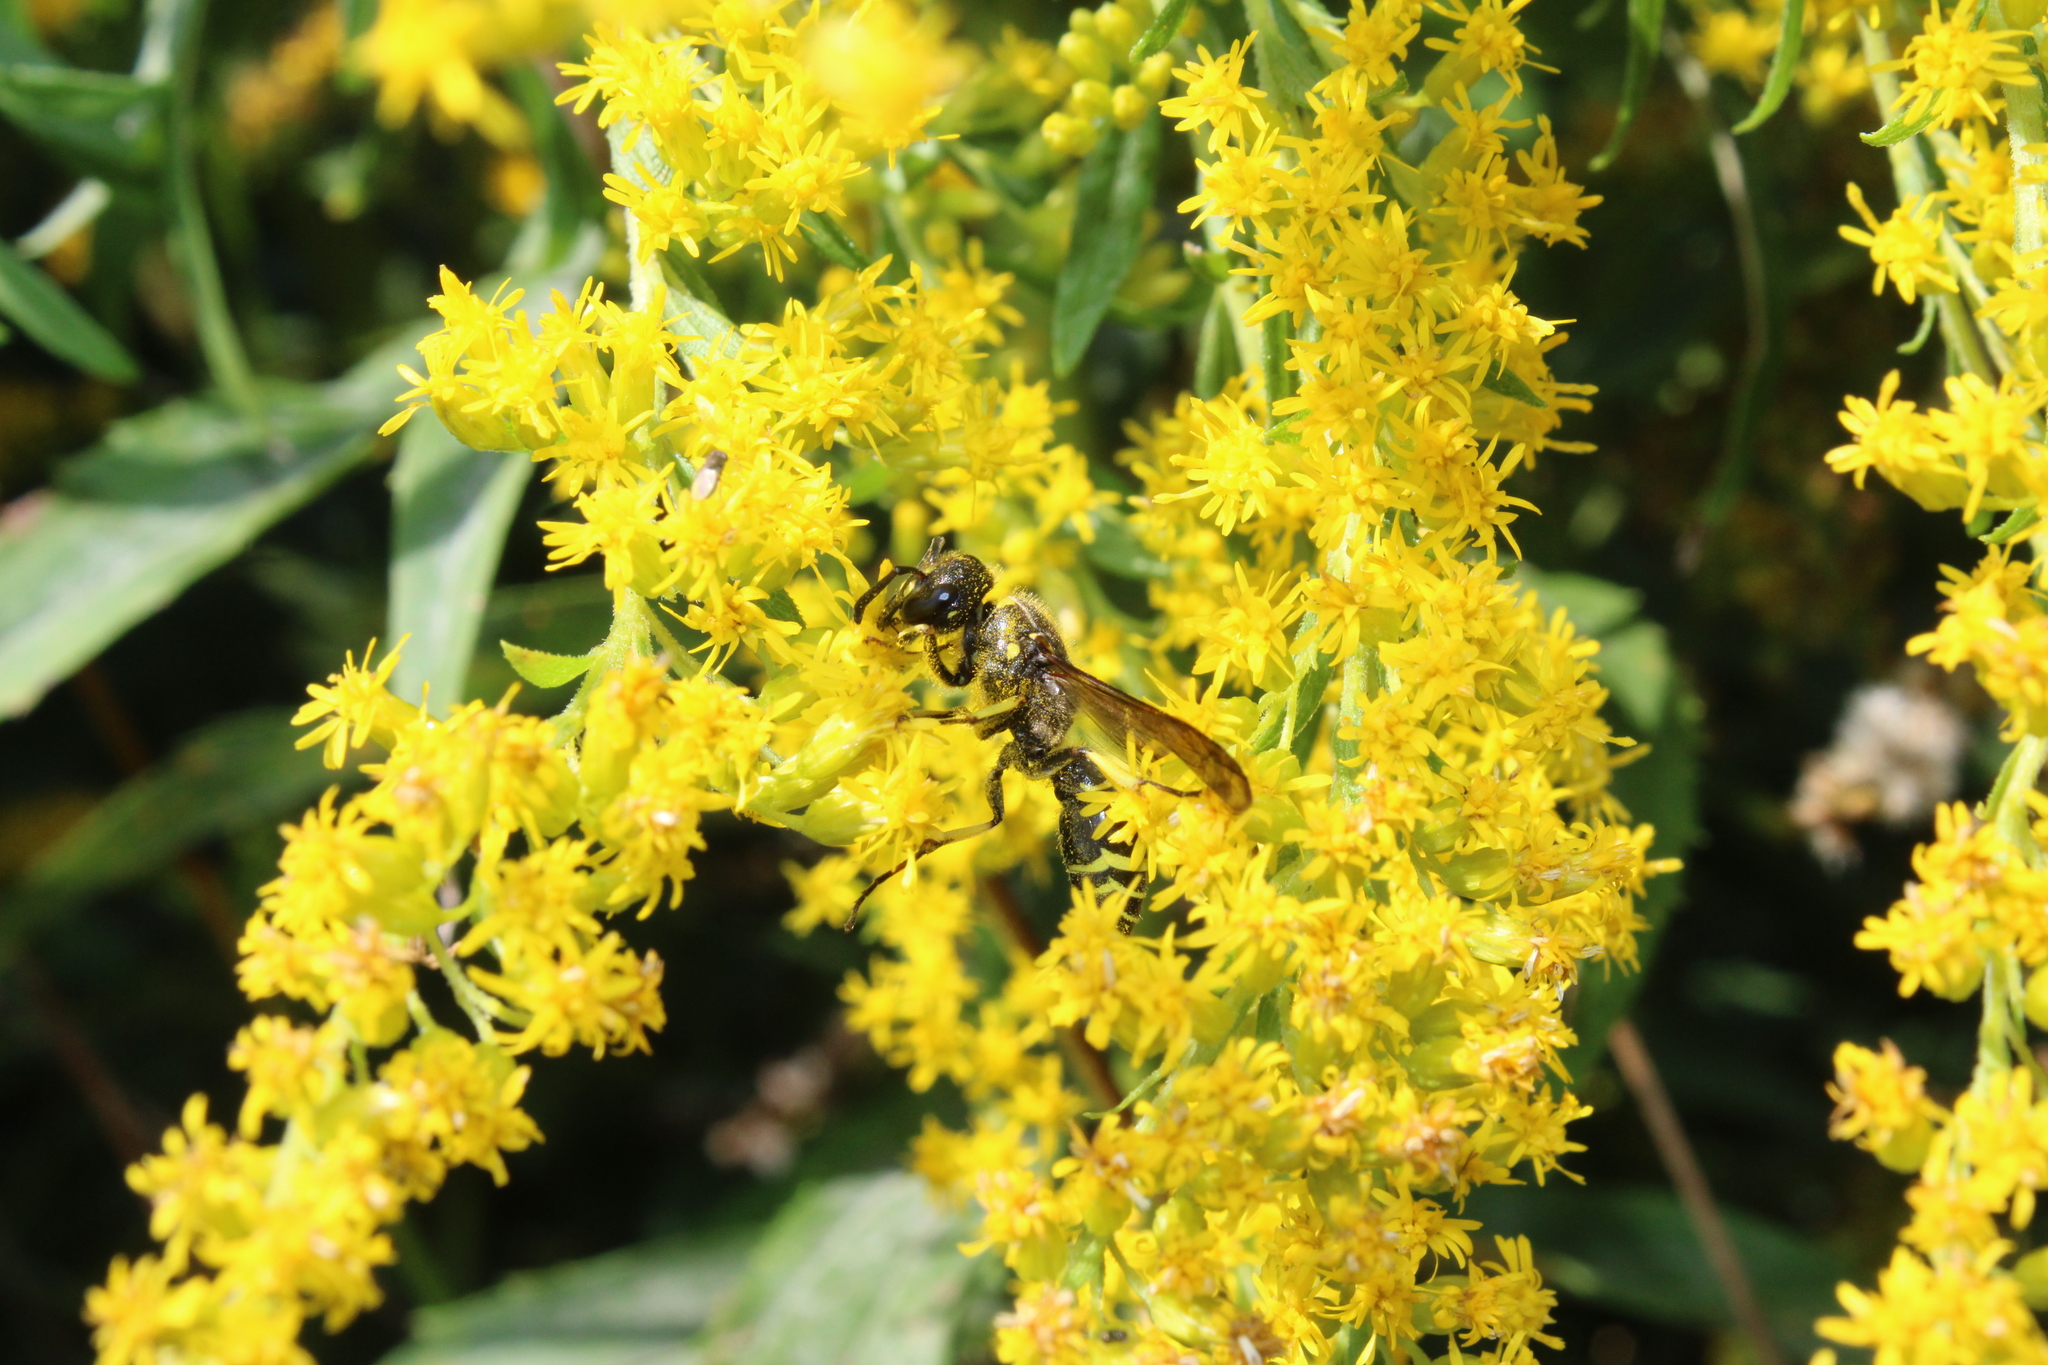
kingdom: Animalia
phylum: Arthropoda
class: Insecta
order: Hymenoptera
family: Vespidae
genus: Ancistrocerus
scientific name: Ancistrocerus adiabatus
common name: Bramble mason wasp
